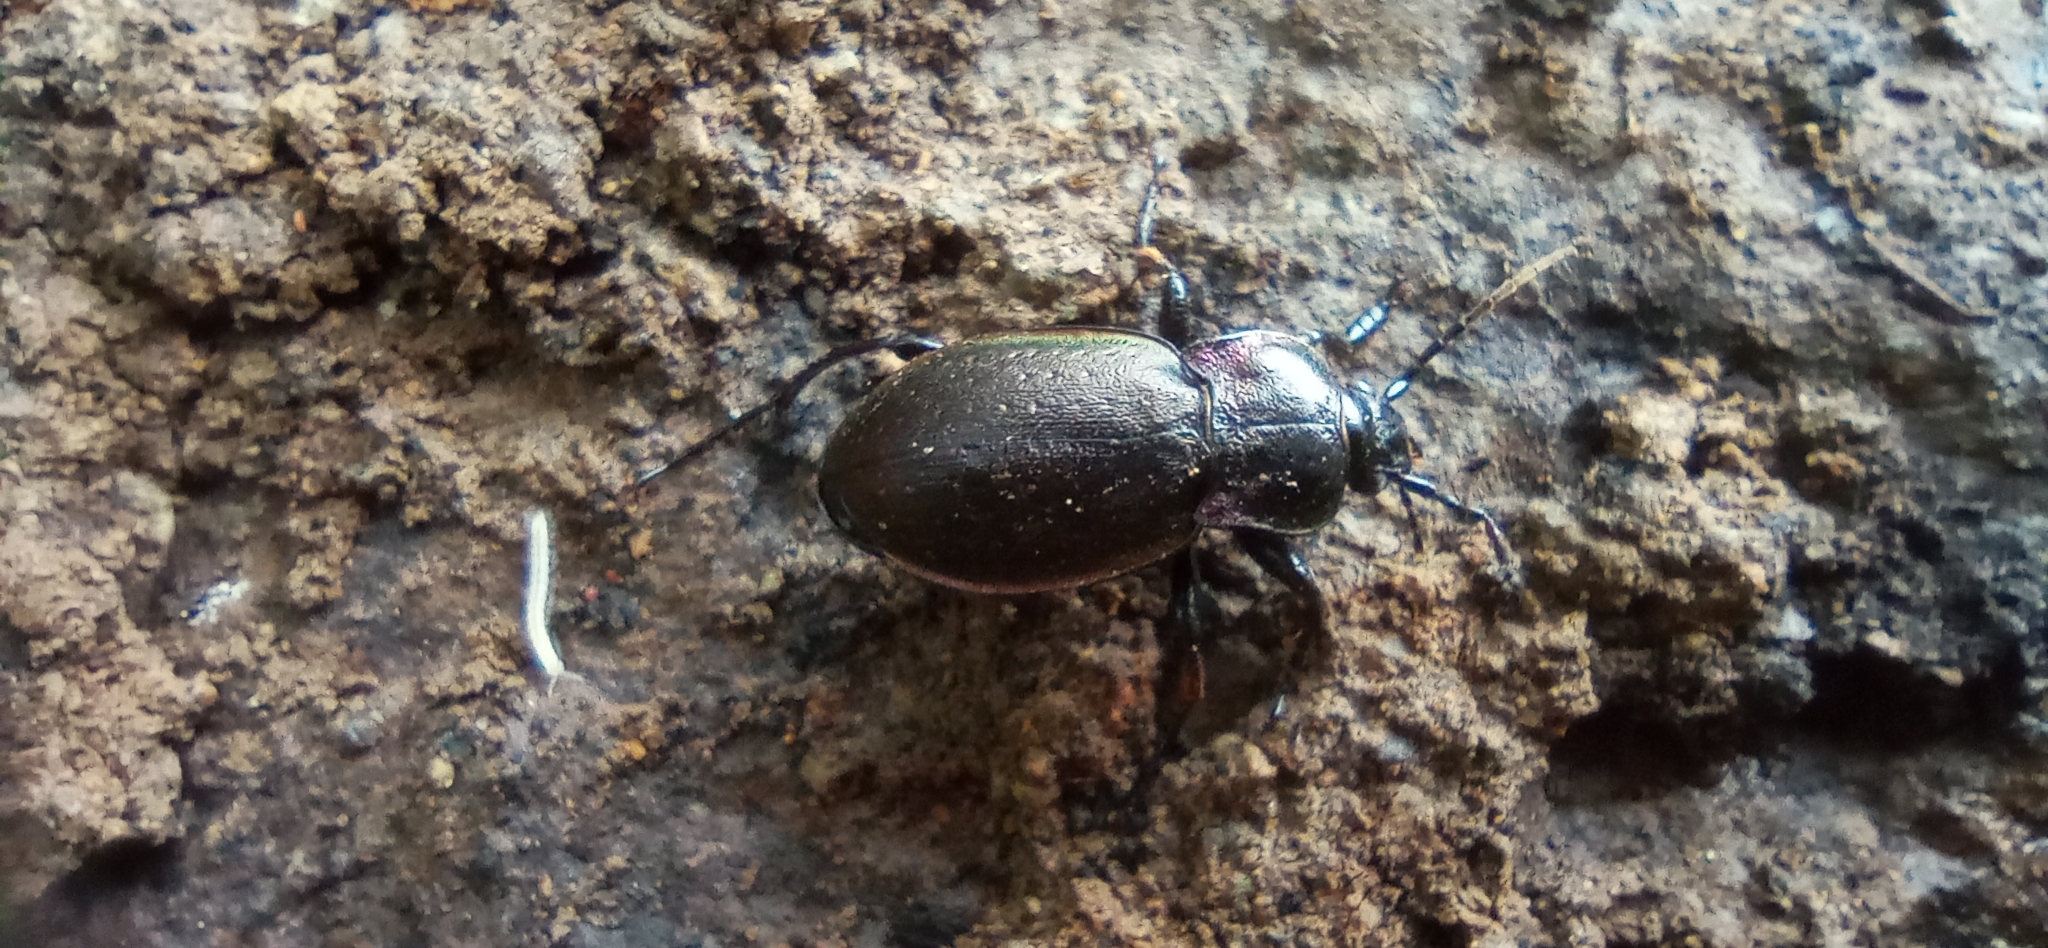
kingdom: Animalia
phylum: Arthropoda
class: Insecta
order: Coleoptera
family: Carabidae
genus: Carabus
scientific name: Carabus nemoralis
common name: European ground beetle
